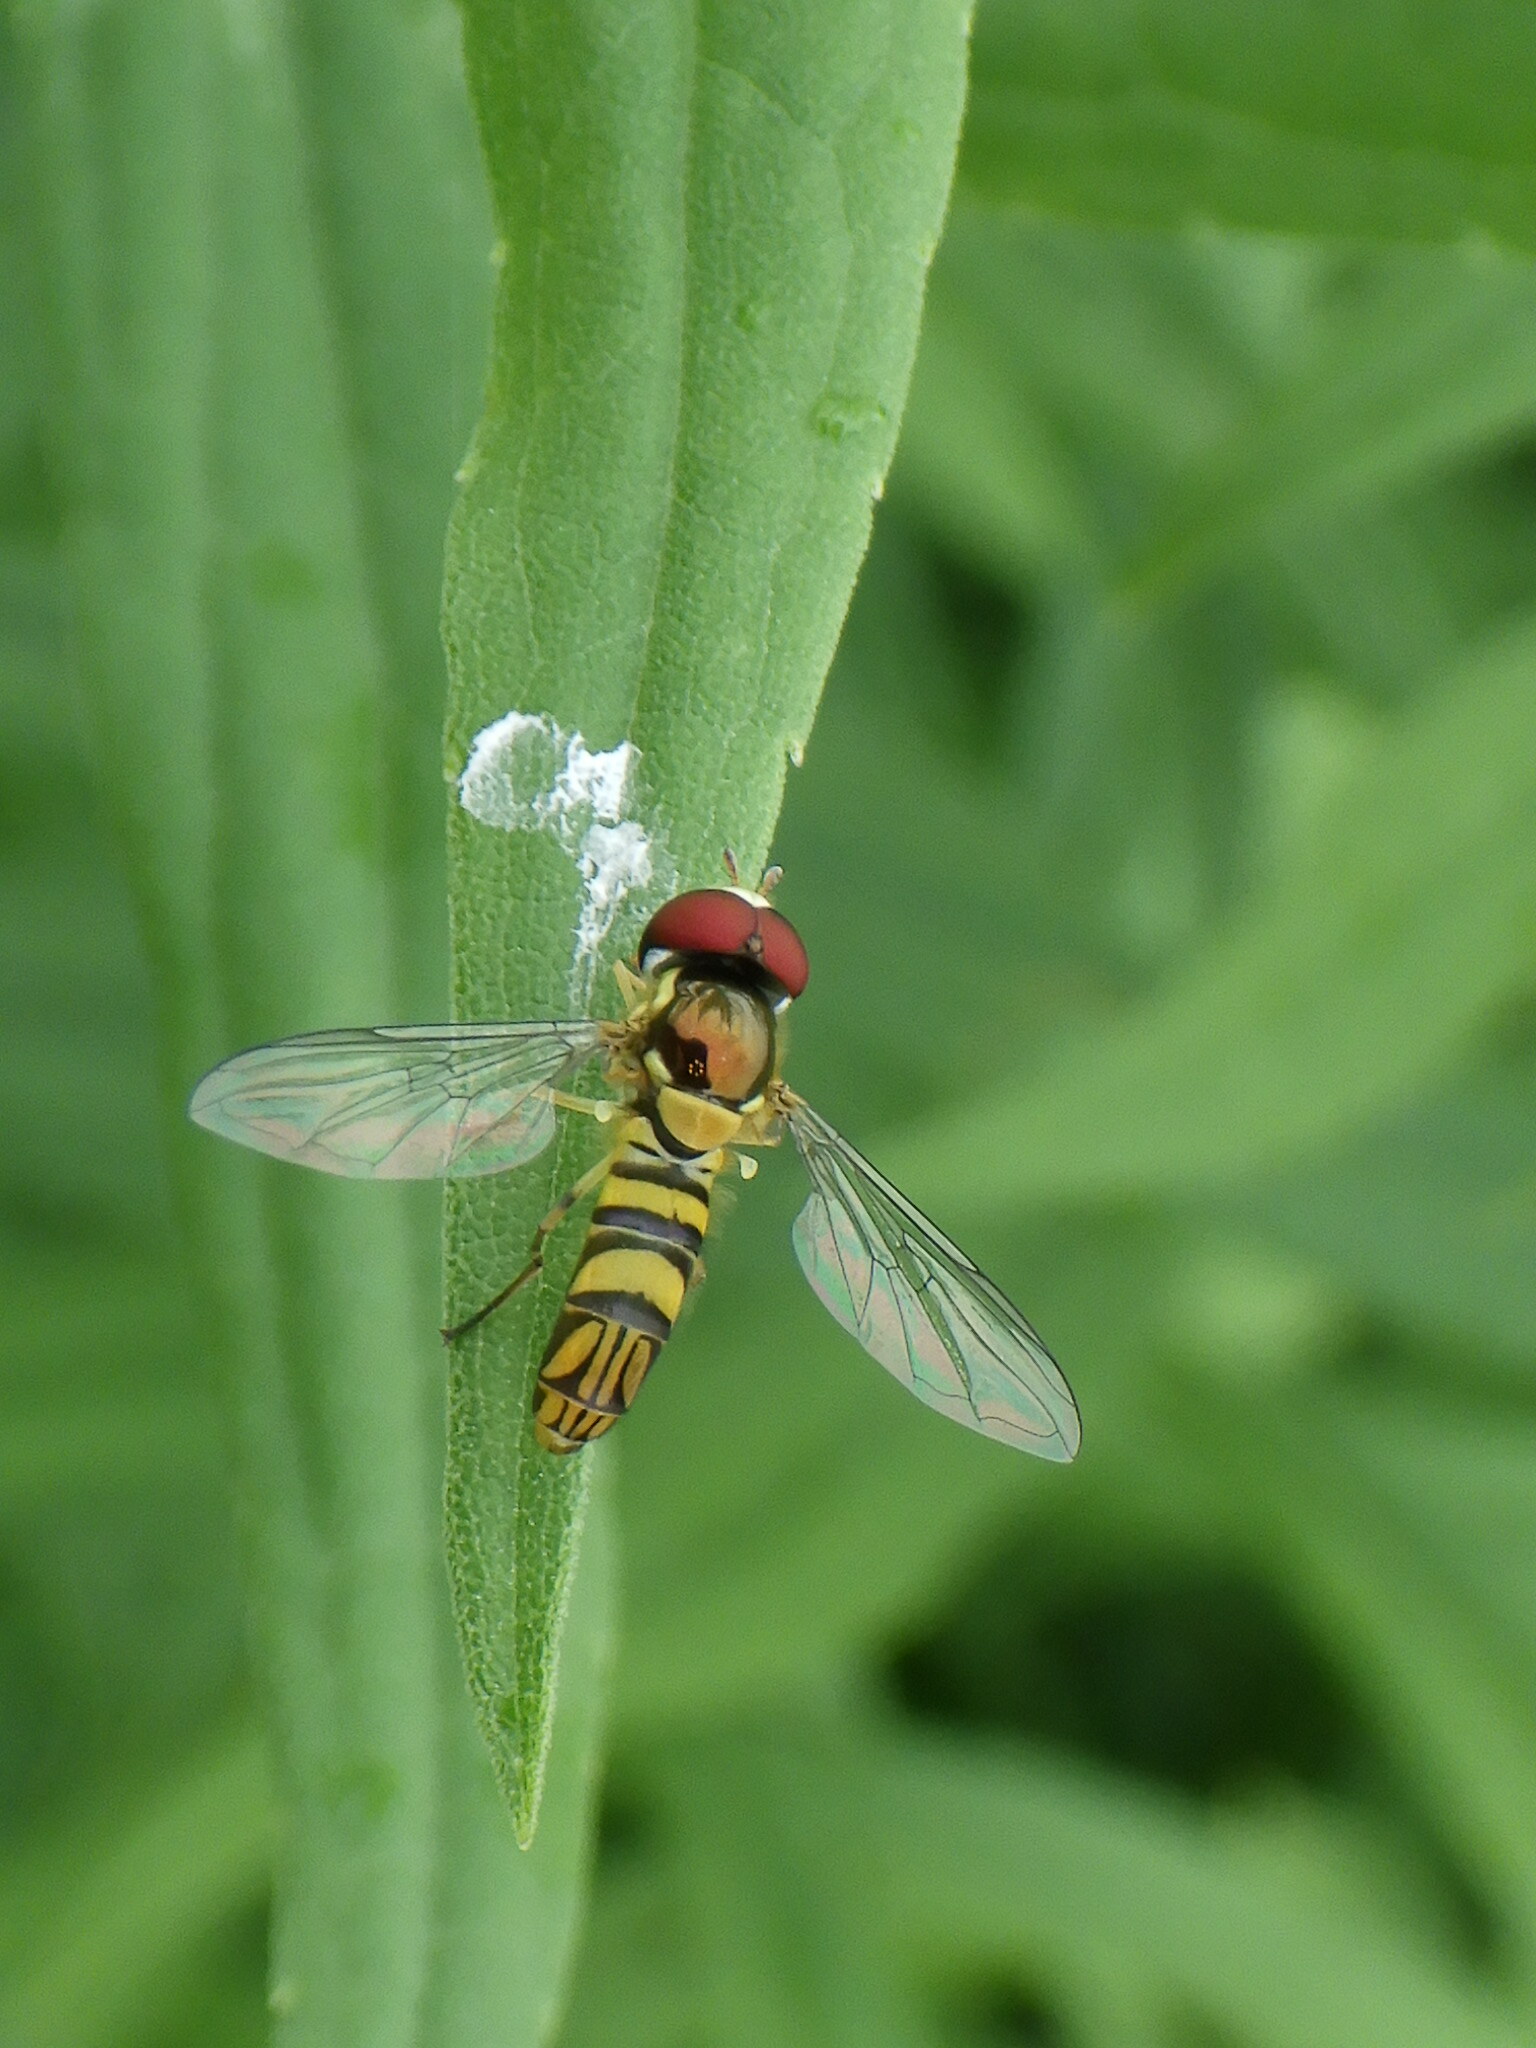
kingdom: Animalia
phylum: Arthropoda
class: Insecta
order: Diptera
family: Syrphidae
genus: Allograpta
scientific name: Allograpta obliqua
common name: Common oblique syrphid
